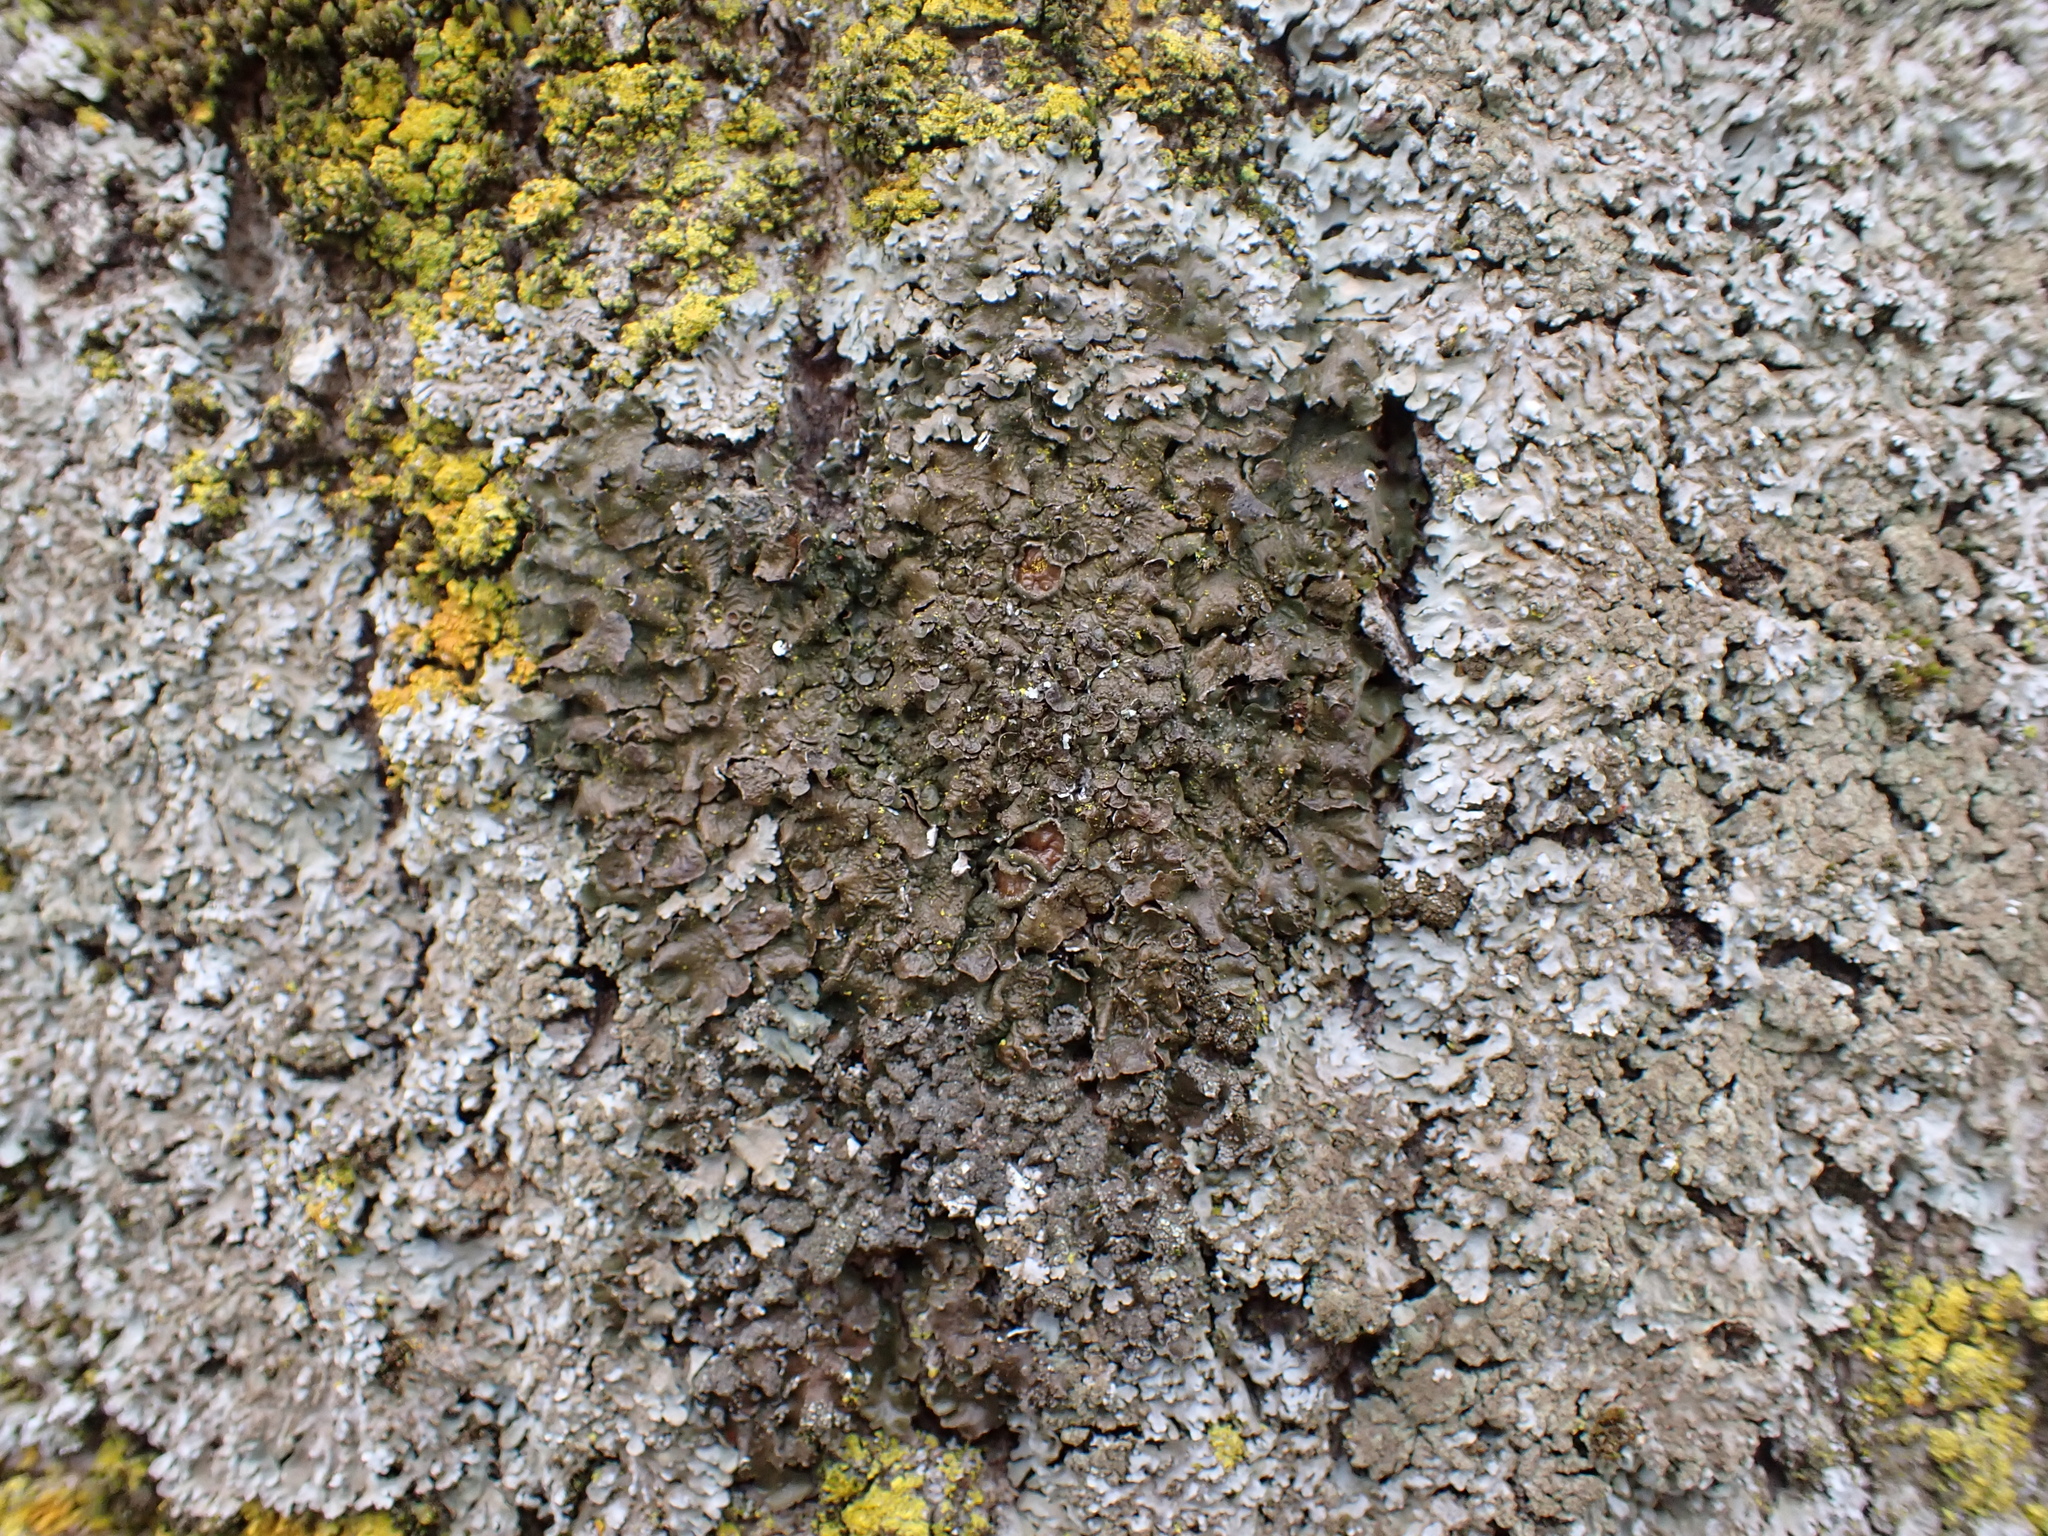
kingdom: Fungi
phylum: Ascomycota
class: Lecanoromycetes
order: Lecanorales
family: Parmeliaceae
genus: Melanelixia
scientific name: Melanelixia glabra
